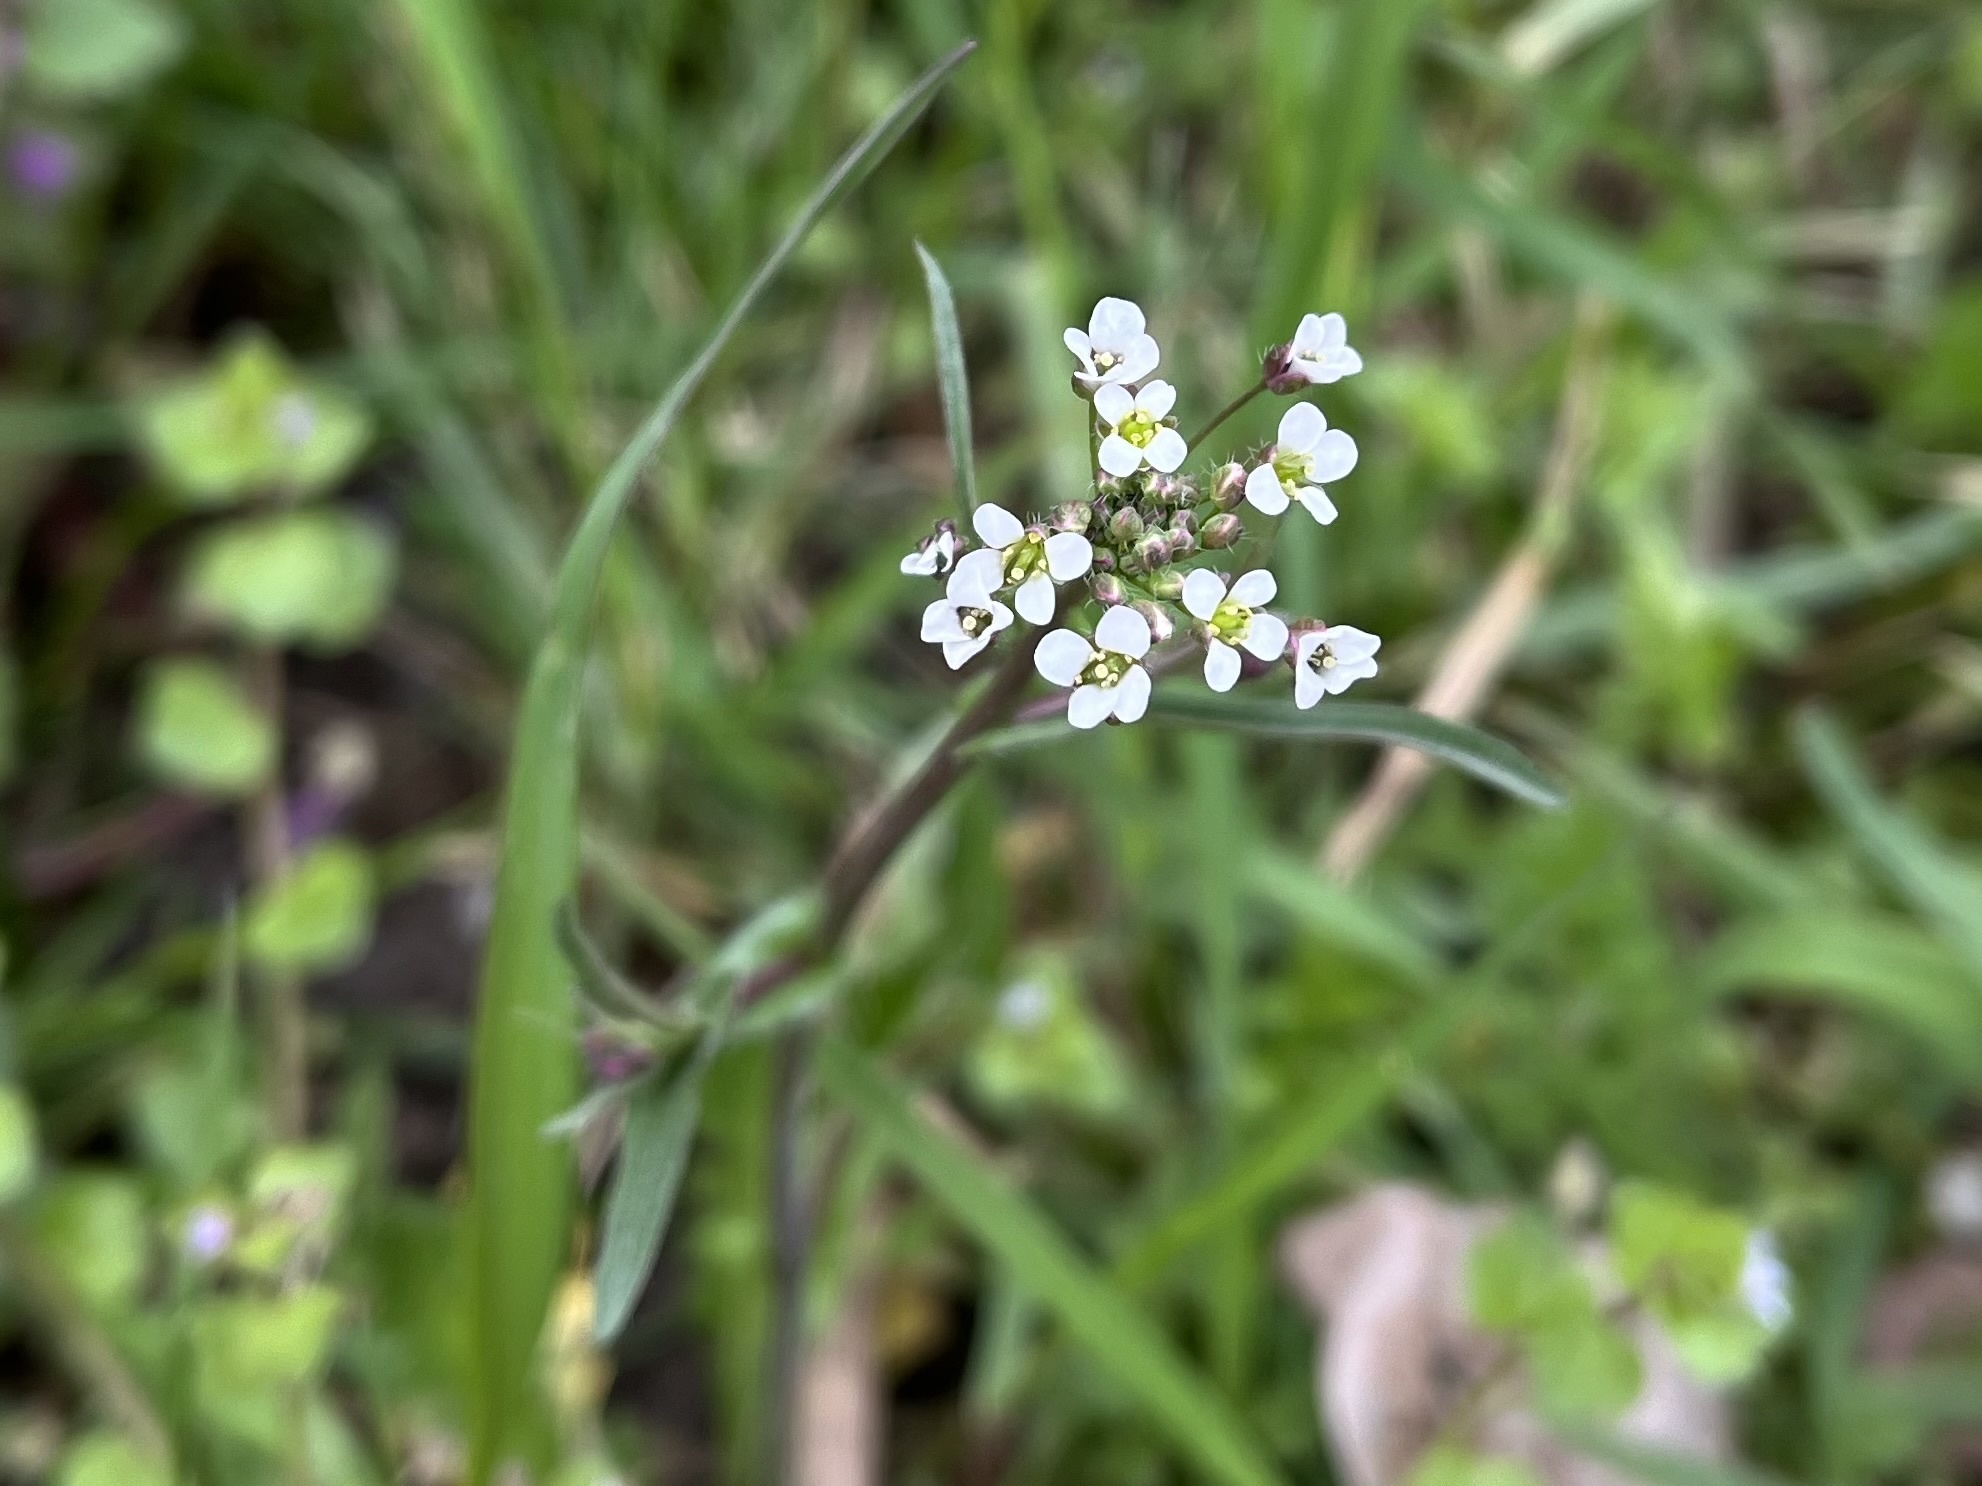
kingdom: Plantae
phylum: Tracheophyta
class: Magnoliopsida
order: Brassicales
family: Brassicaceae
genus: Capsella
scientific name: Capsella bursa-pastoris
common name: Shepherd's purse
